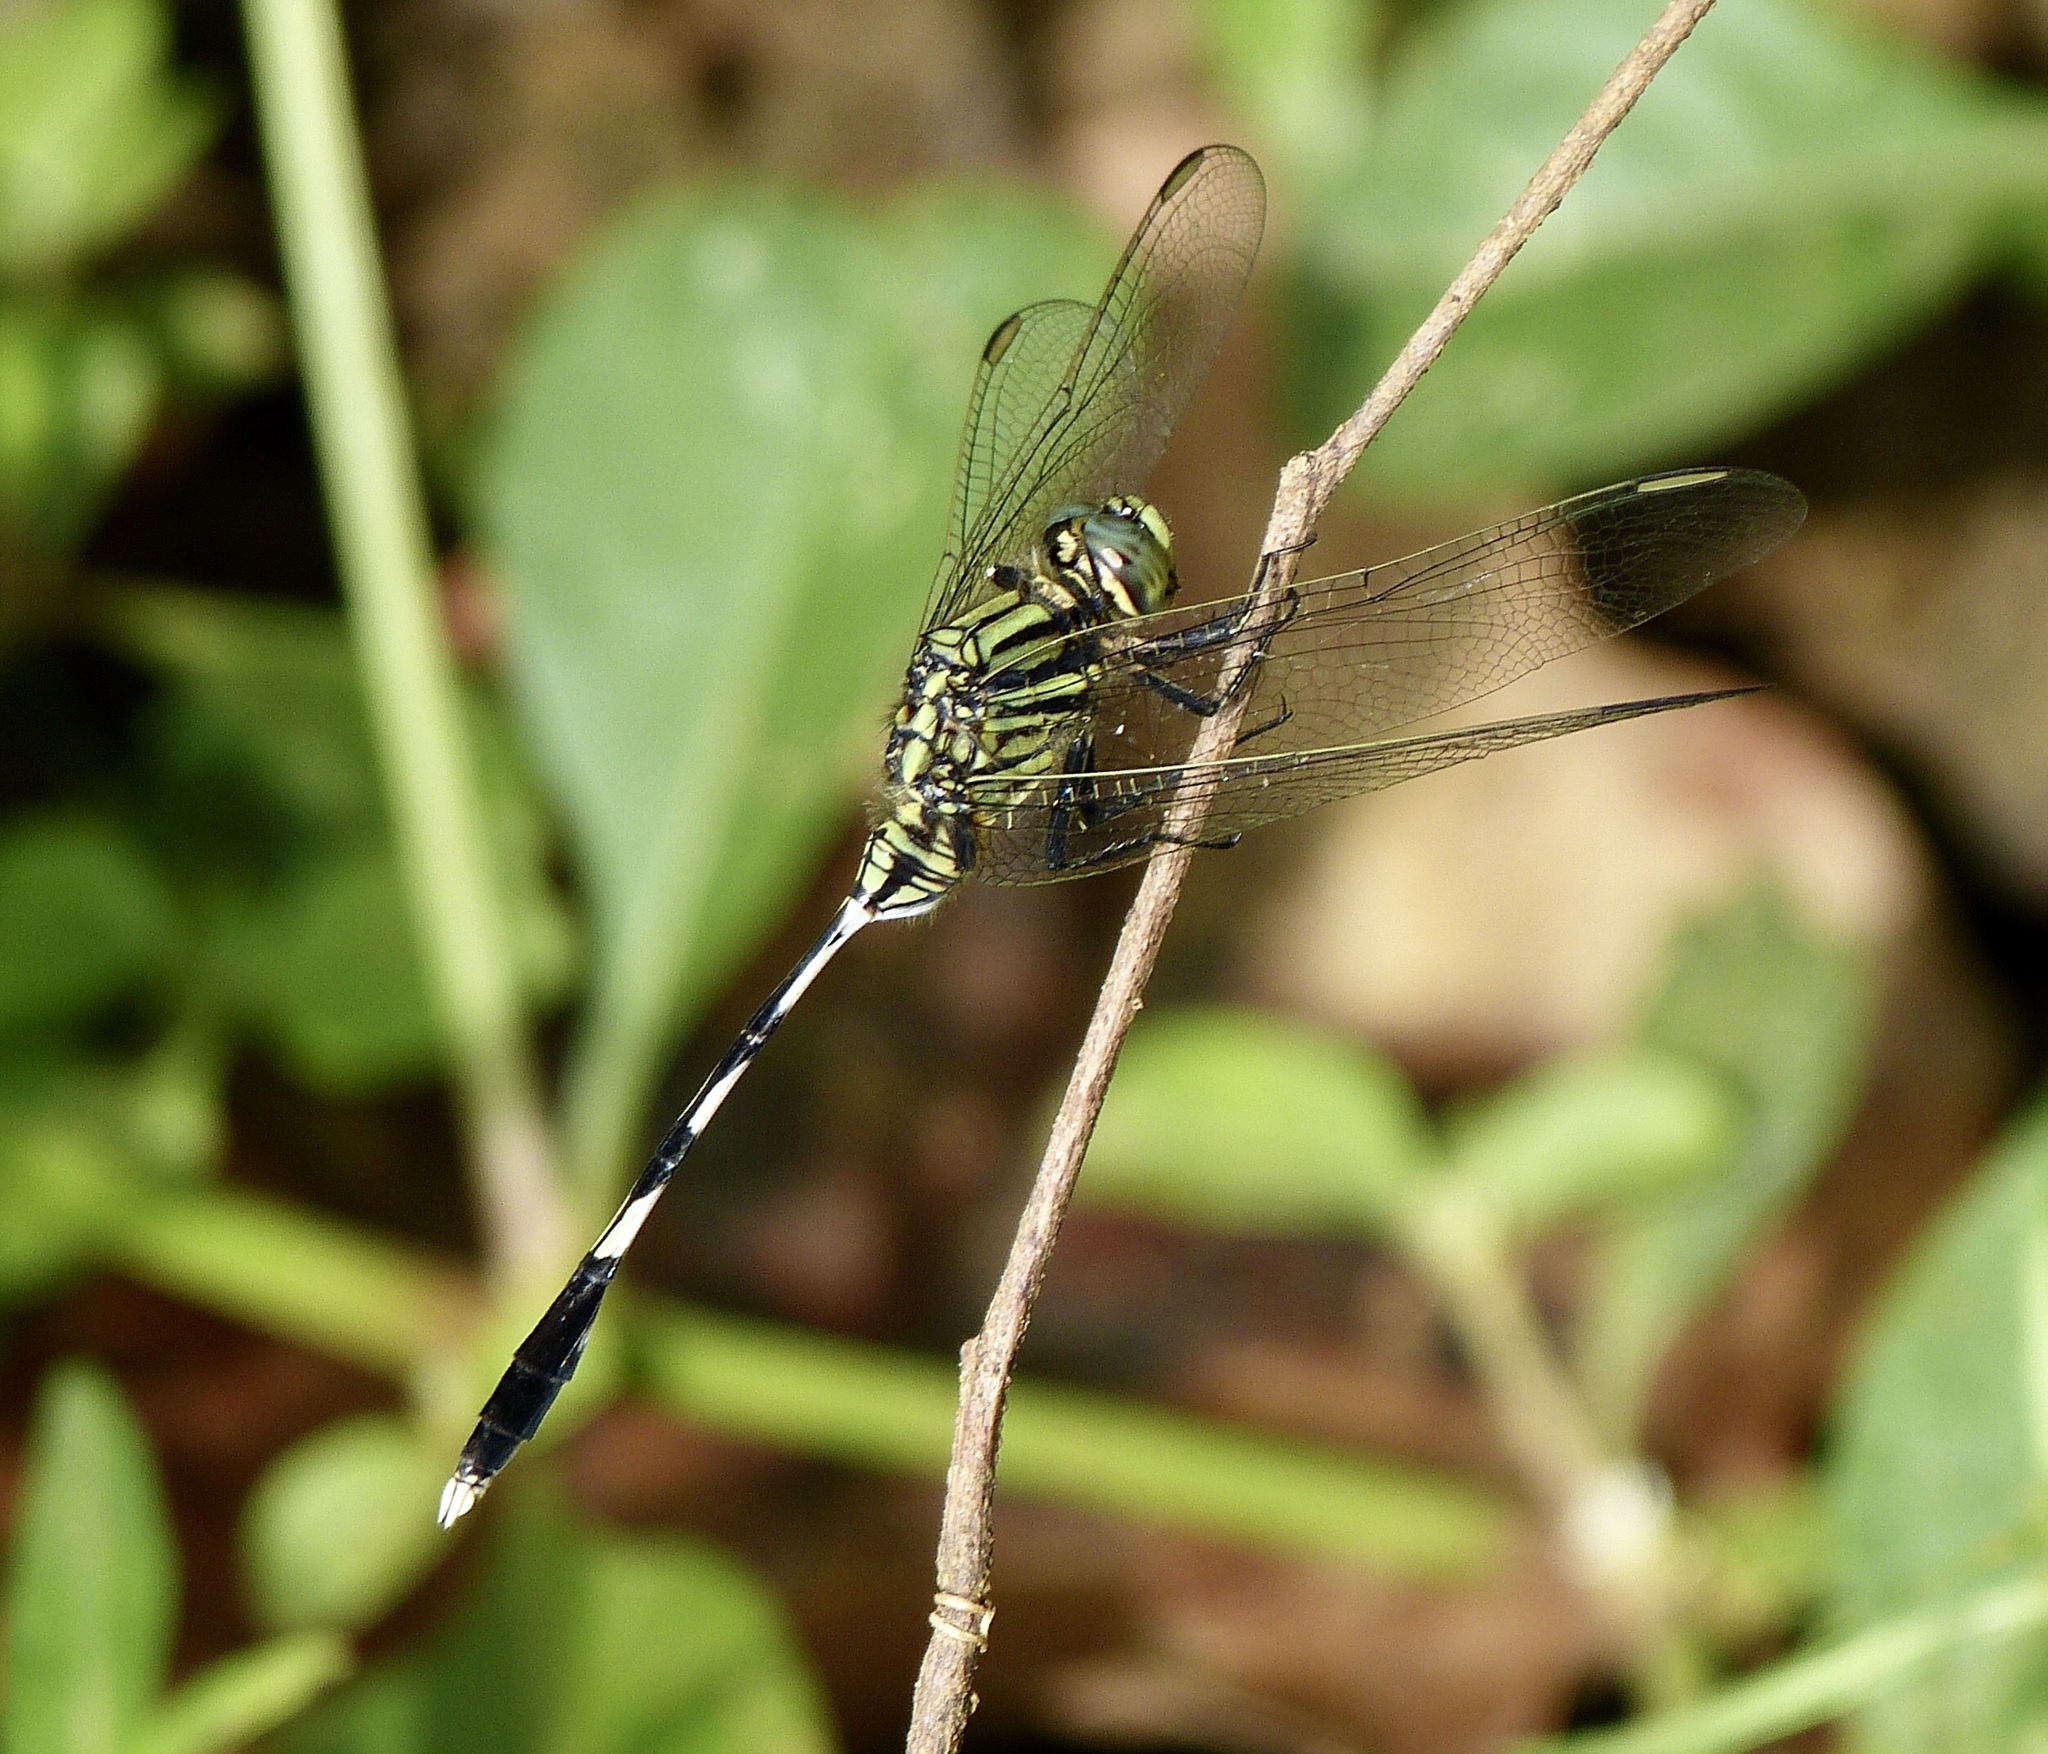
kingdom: Animalia
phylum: Arthropoda
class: Insecta
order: Odonata
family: Libellulidae
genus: Orthetrum
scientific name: Orthetrum sabina
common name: Slender skimmer
